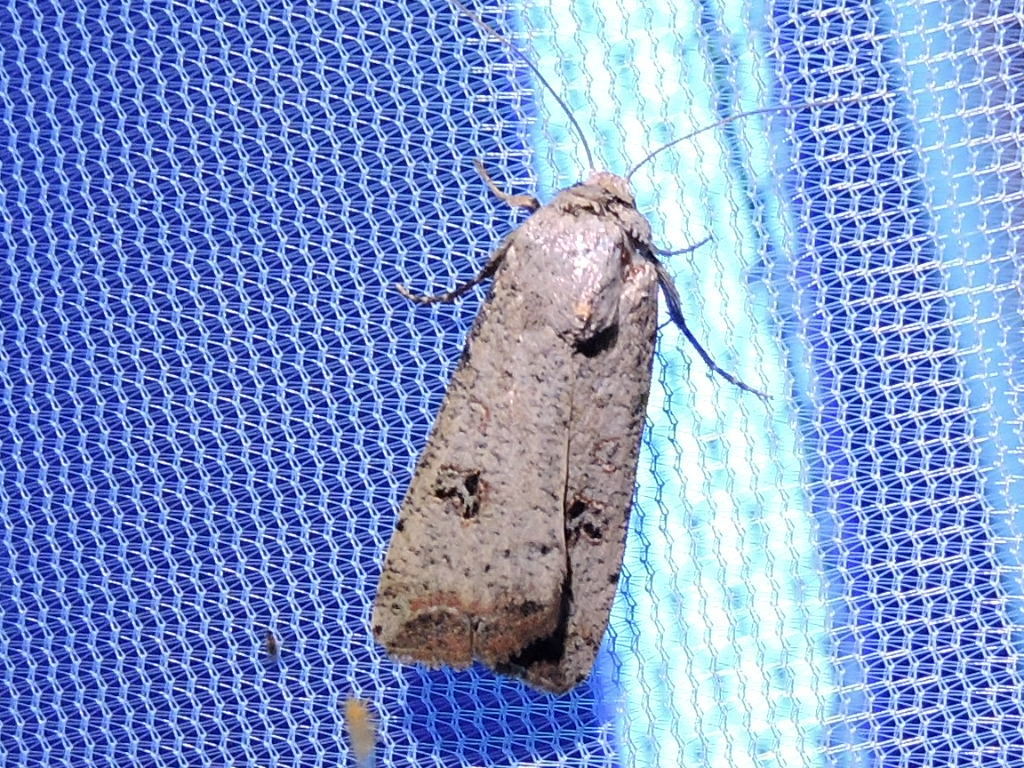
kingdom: Animalia
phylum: Arthropoda
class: Insecta
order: Lepidoptera
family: Noctuidae
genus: Anicla
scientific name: Anicla infecta
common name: Green cutworm
